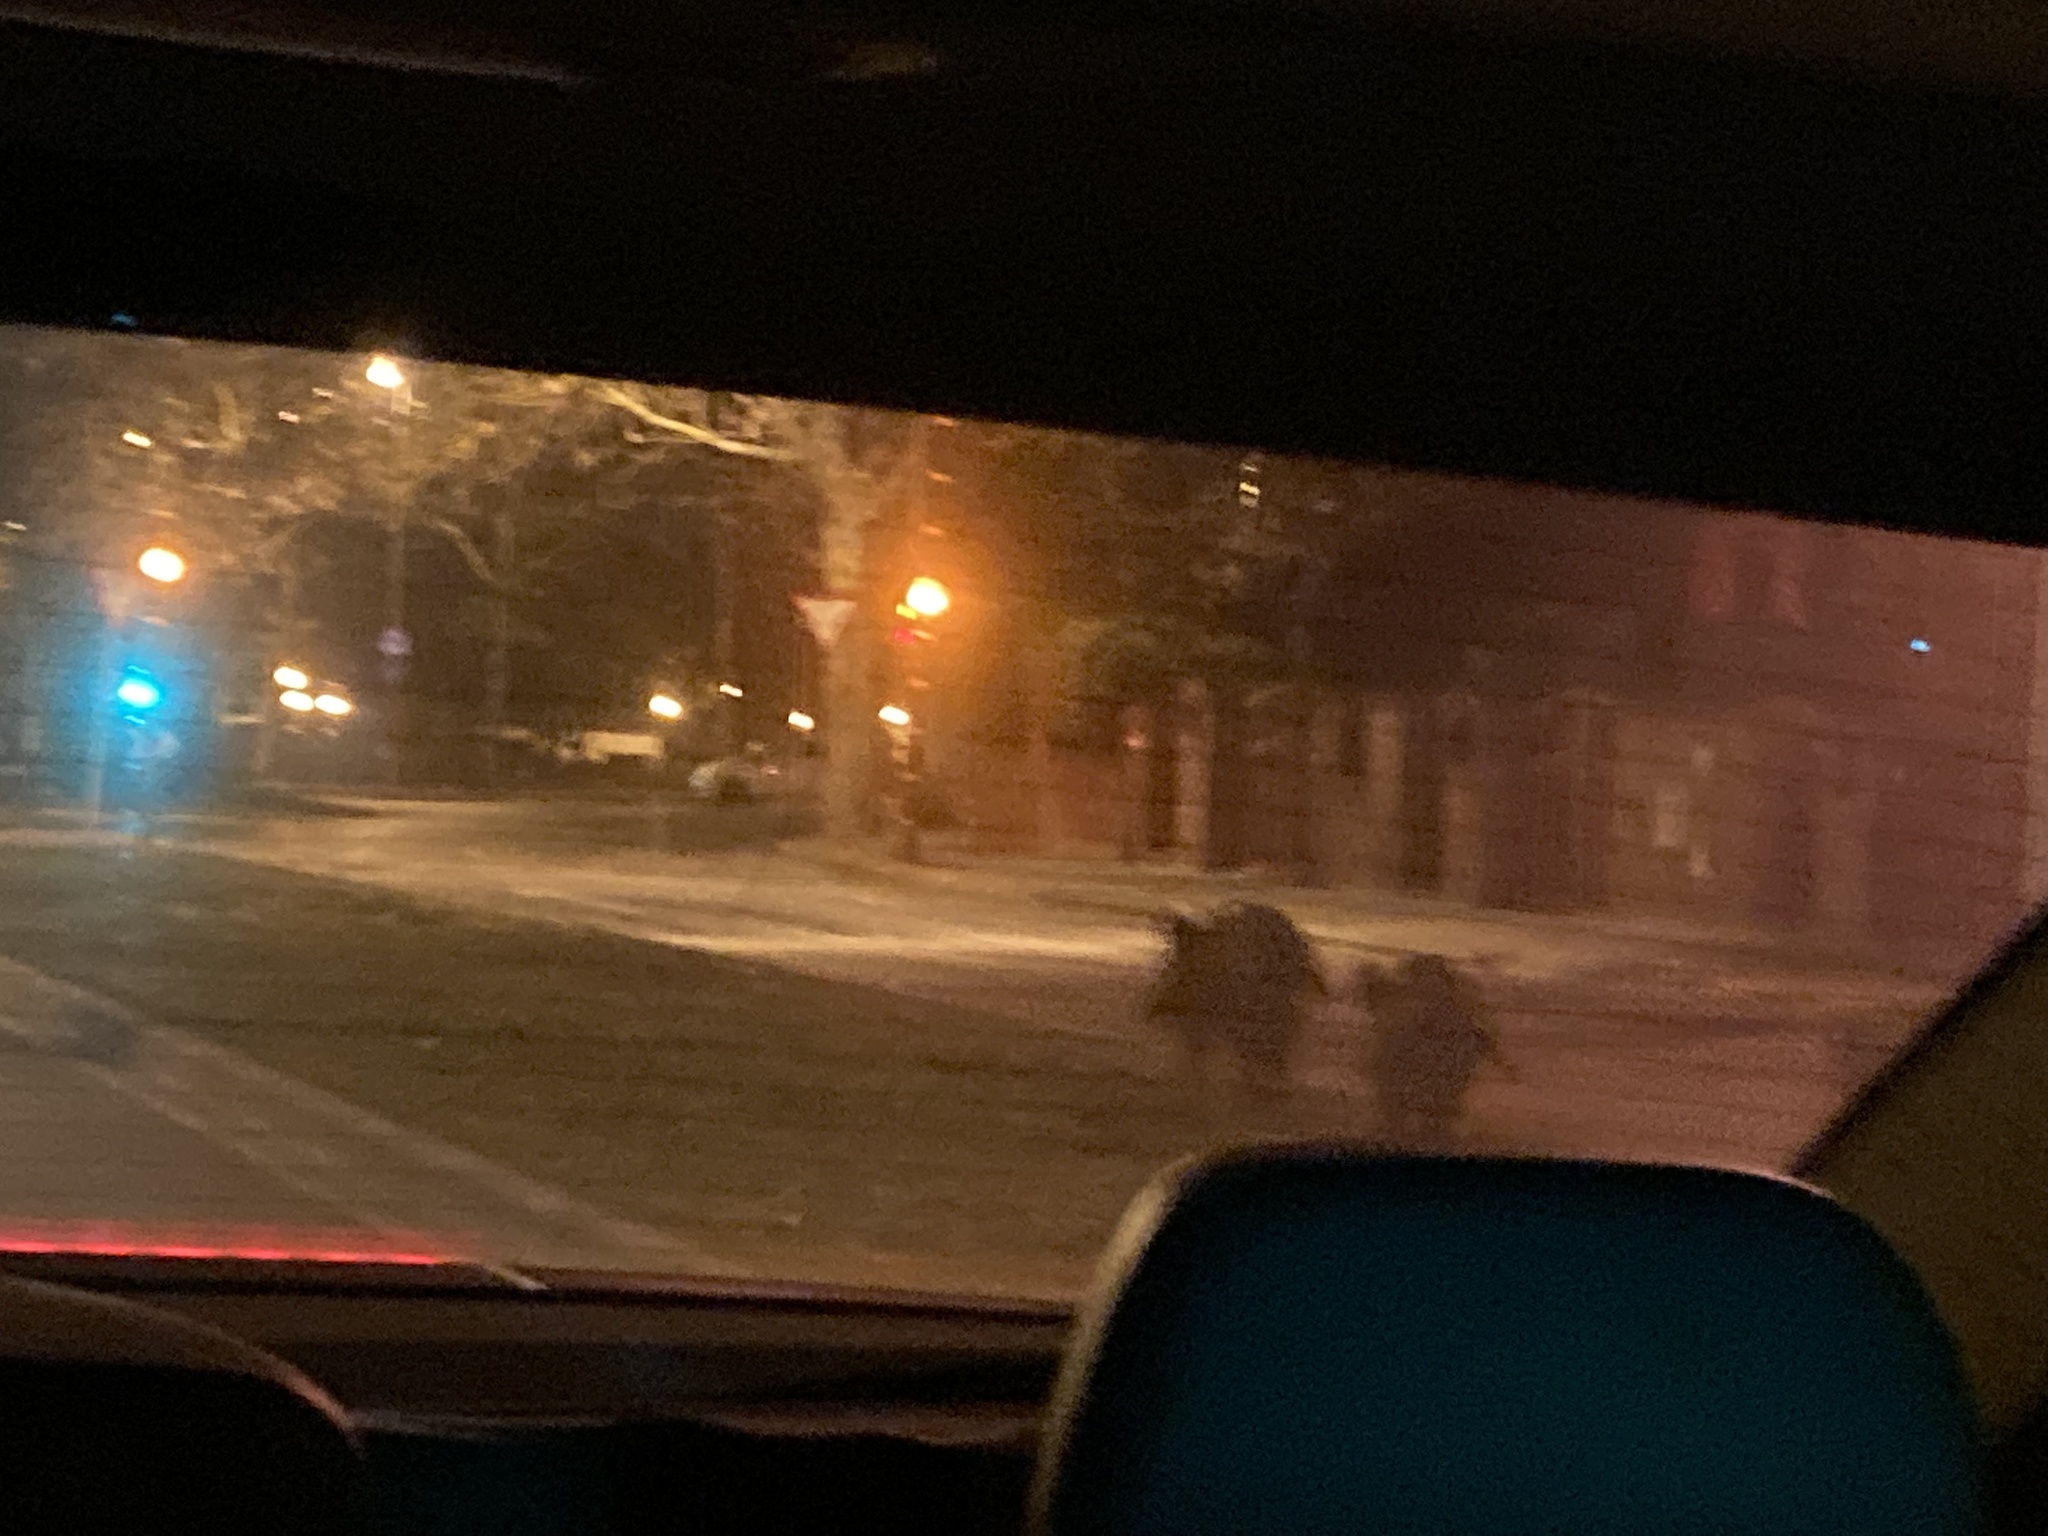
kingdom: Animalia
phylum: Chordata
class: Mammalia
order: Artiodactyla
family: Suidae
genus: Sus
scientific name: Sus scrofa
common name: Wild boar
